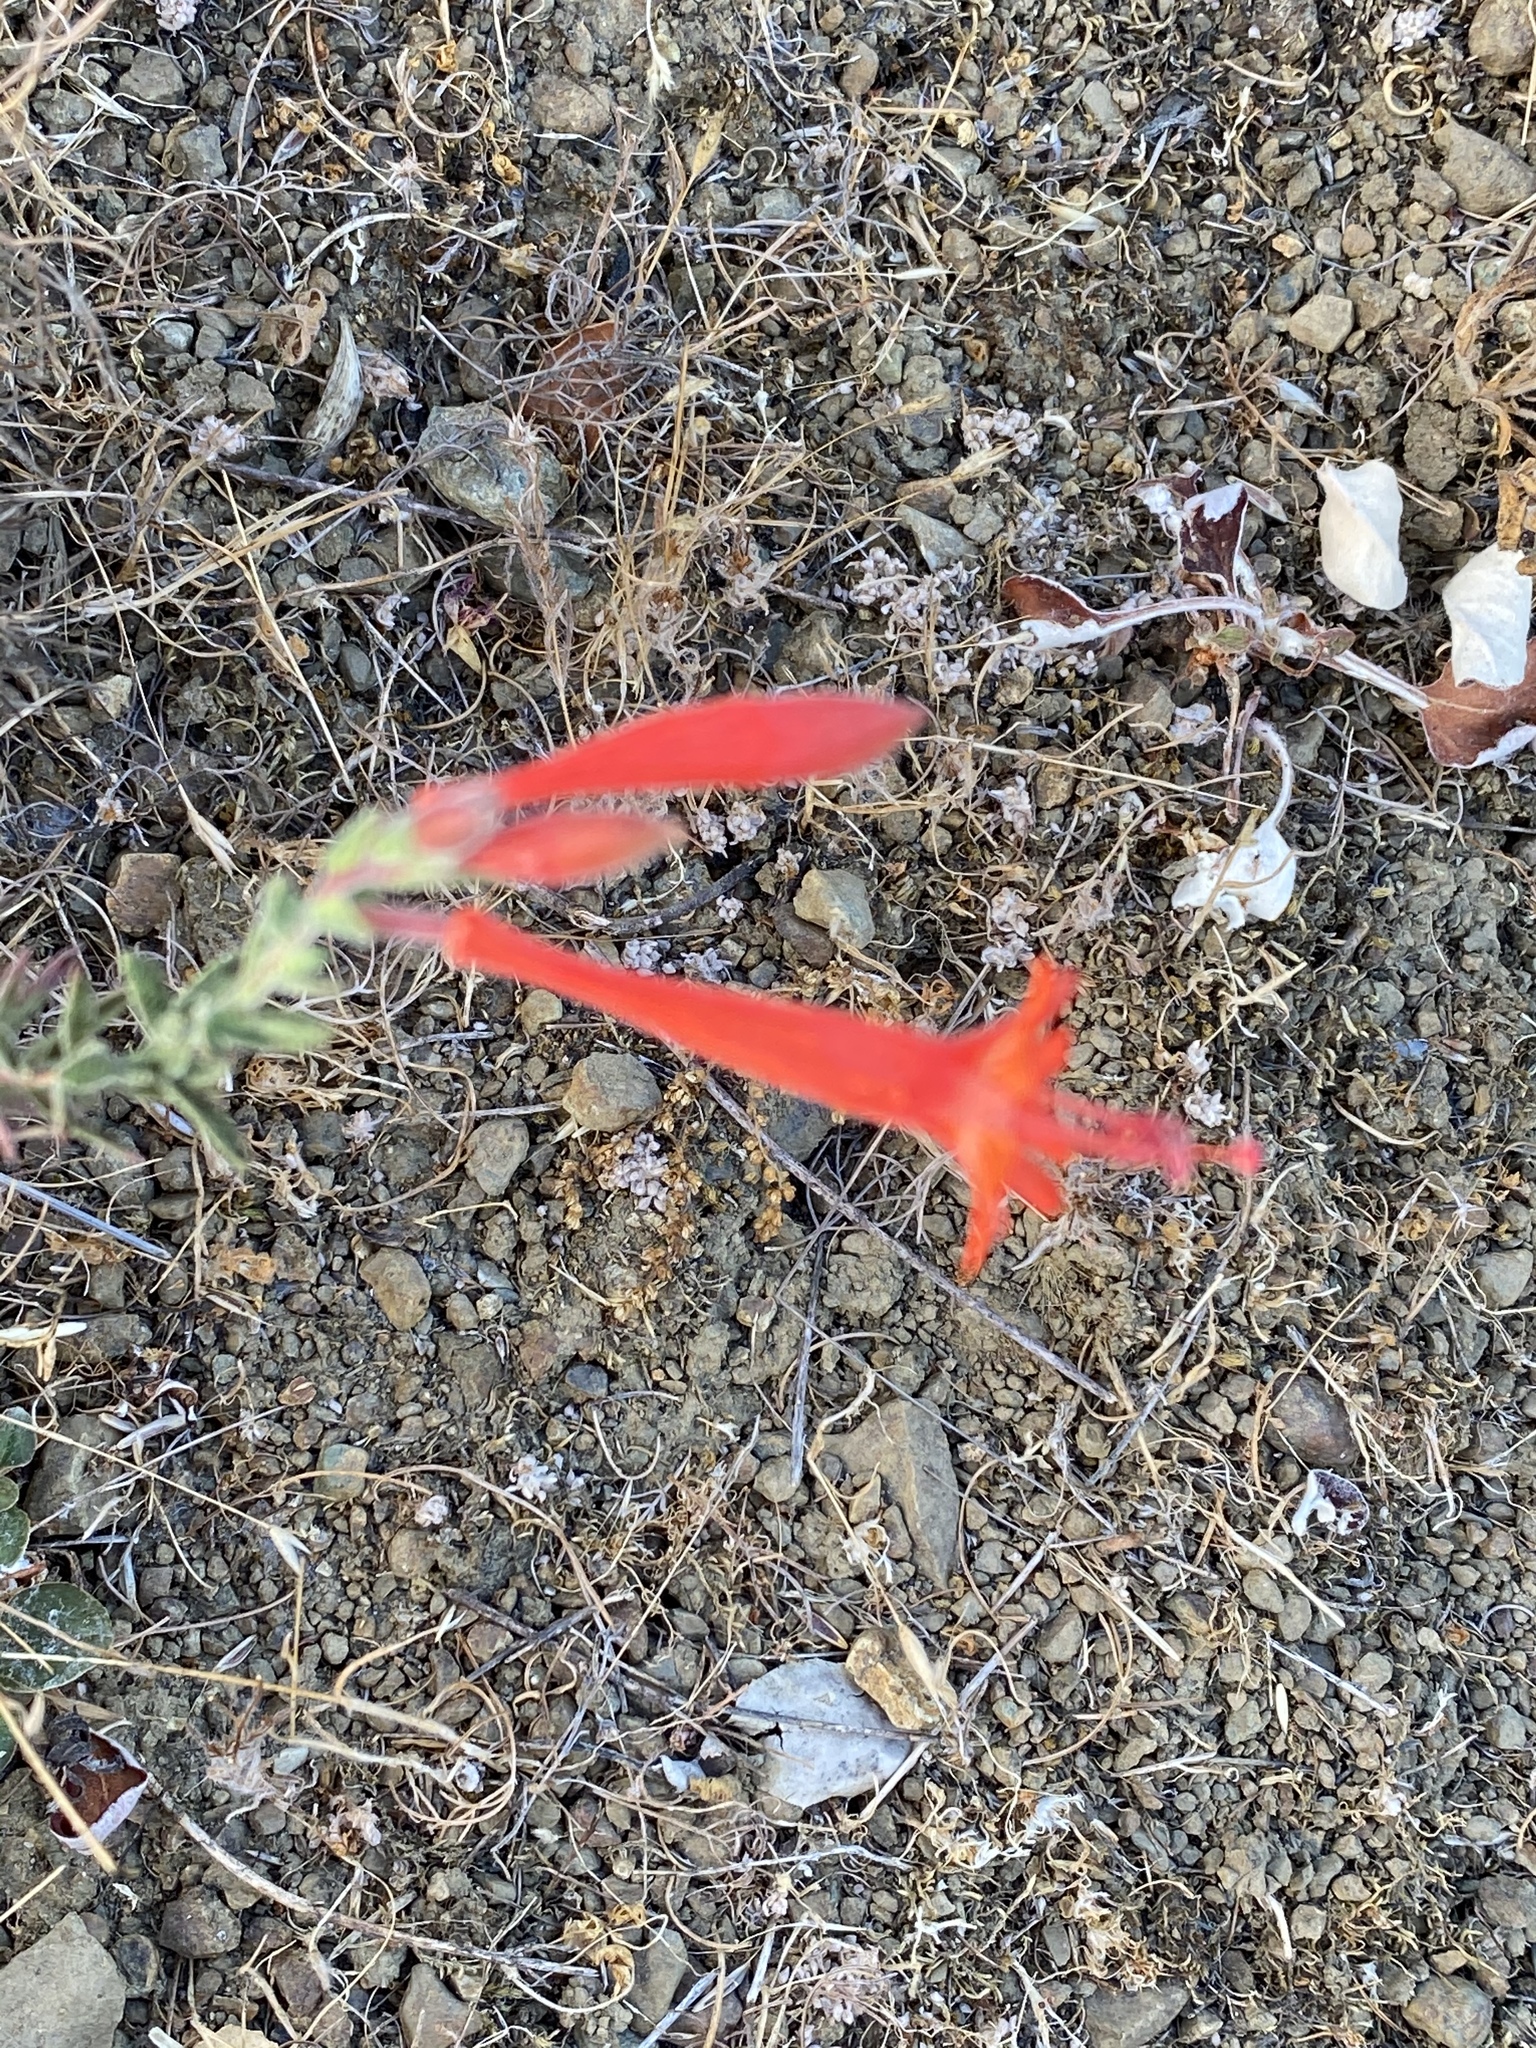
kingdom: Plantae
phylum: Tracheophyta
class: Magnoliopsida
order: Myrtales
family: Onagraceae
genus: Epilobium
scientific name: Epilobium canum
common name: California-fuchsia
